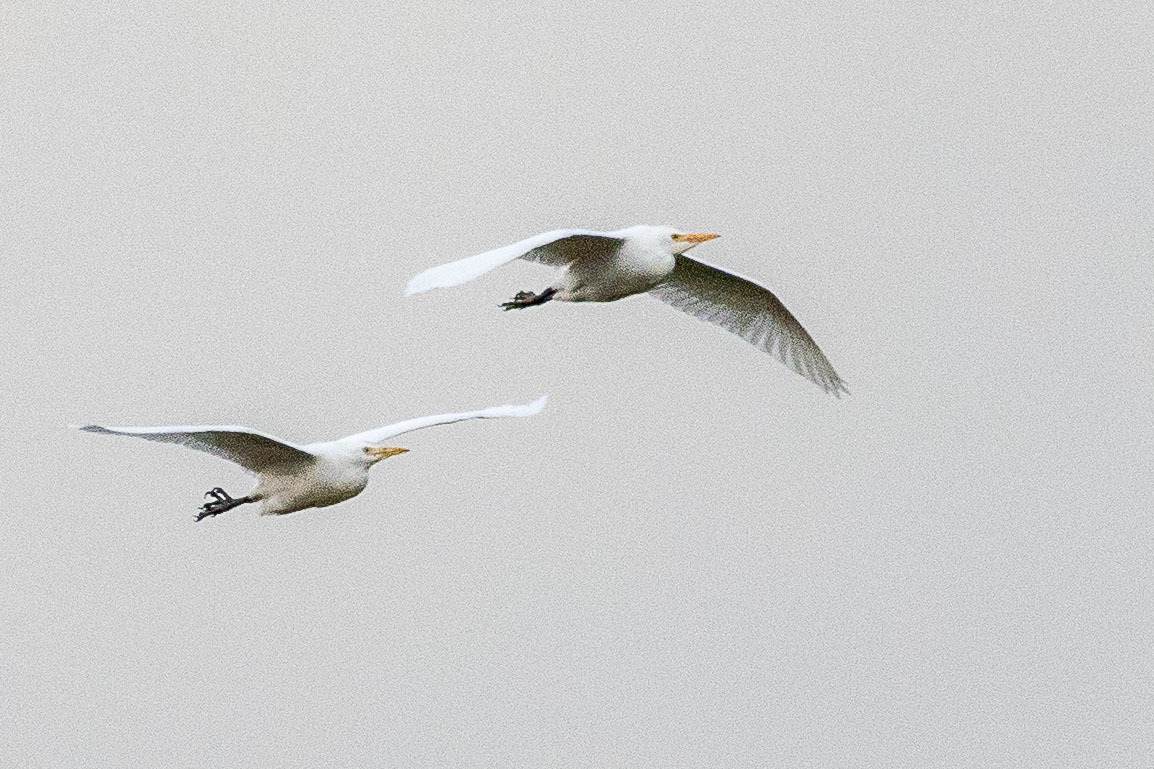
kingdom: Animalia
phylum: Chordata
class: Aves
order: Pelecaniformes
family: Ardeidae
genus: Bubulcus
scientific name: Bubulcus ibis
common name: Cattle egret
